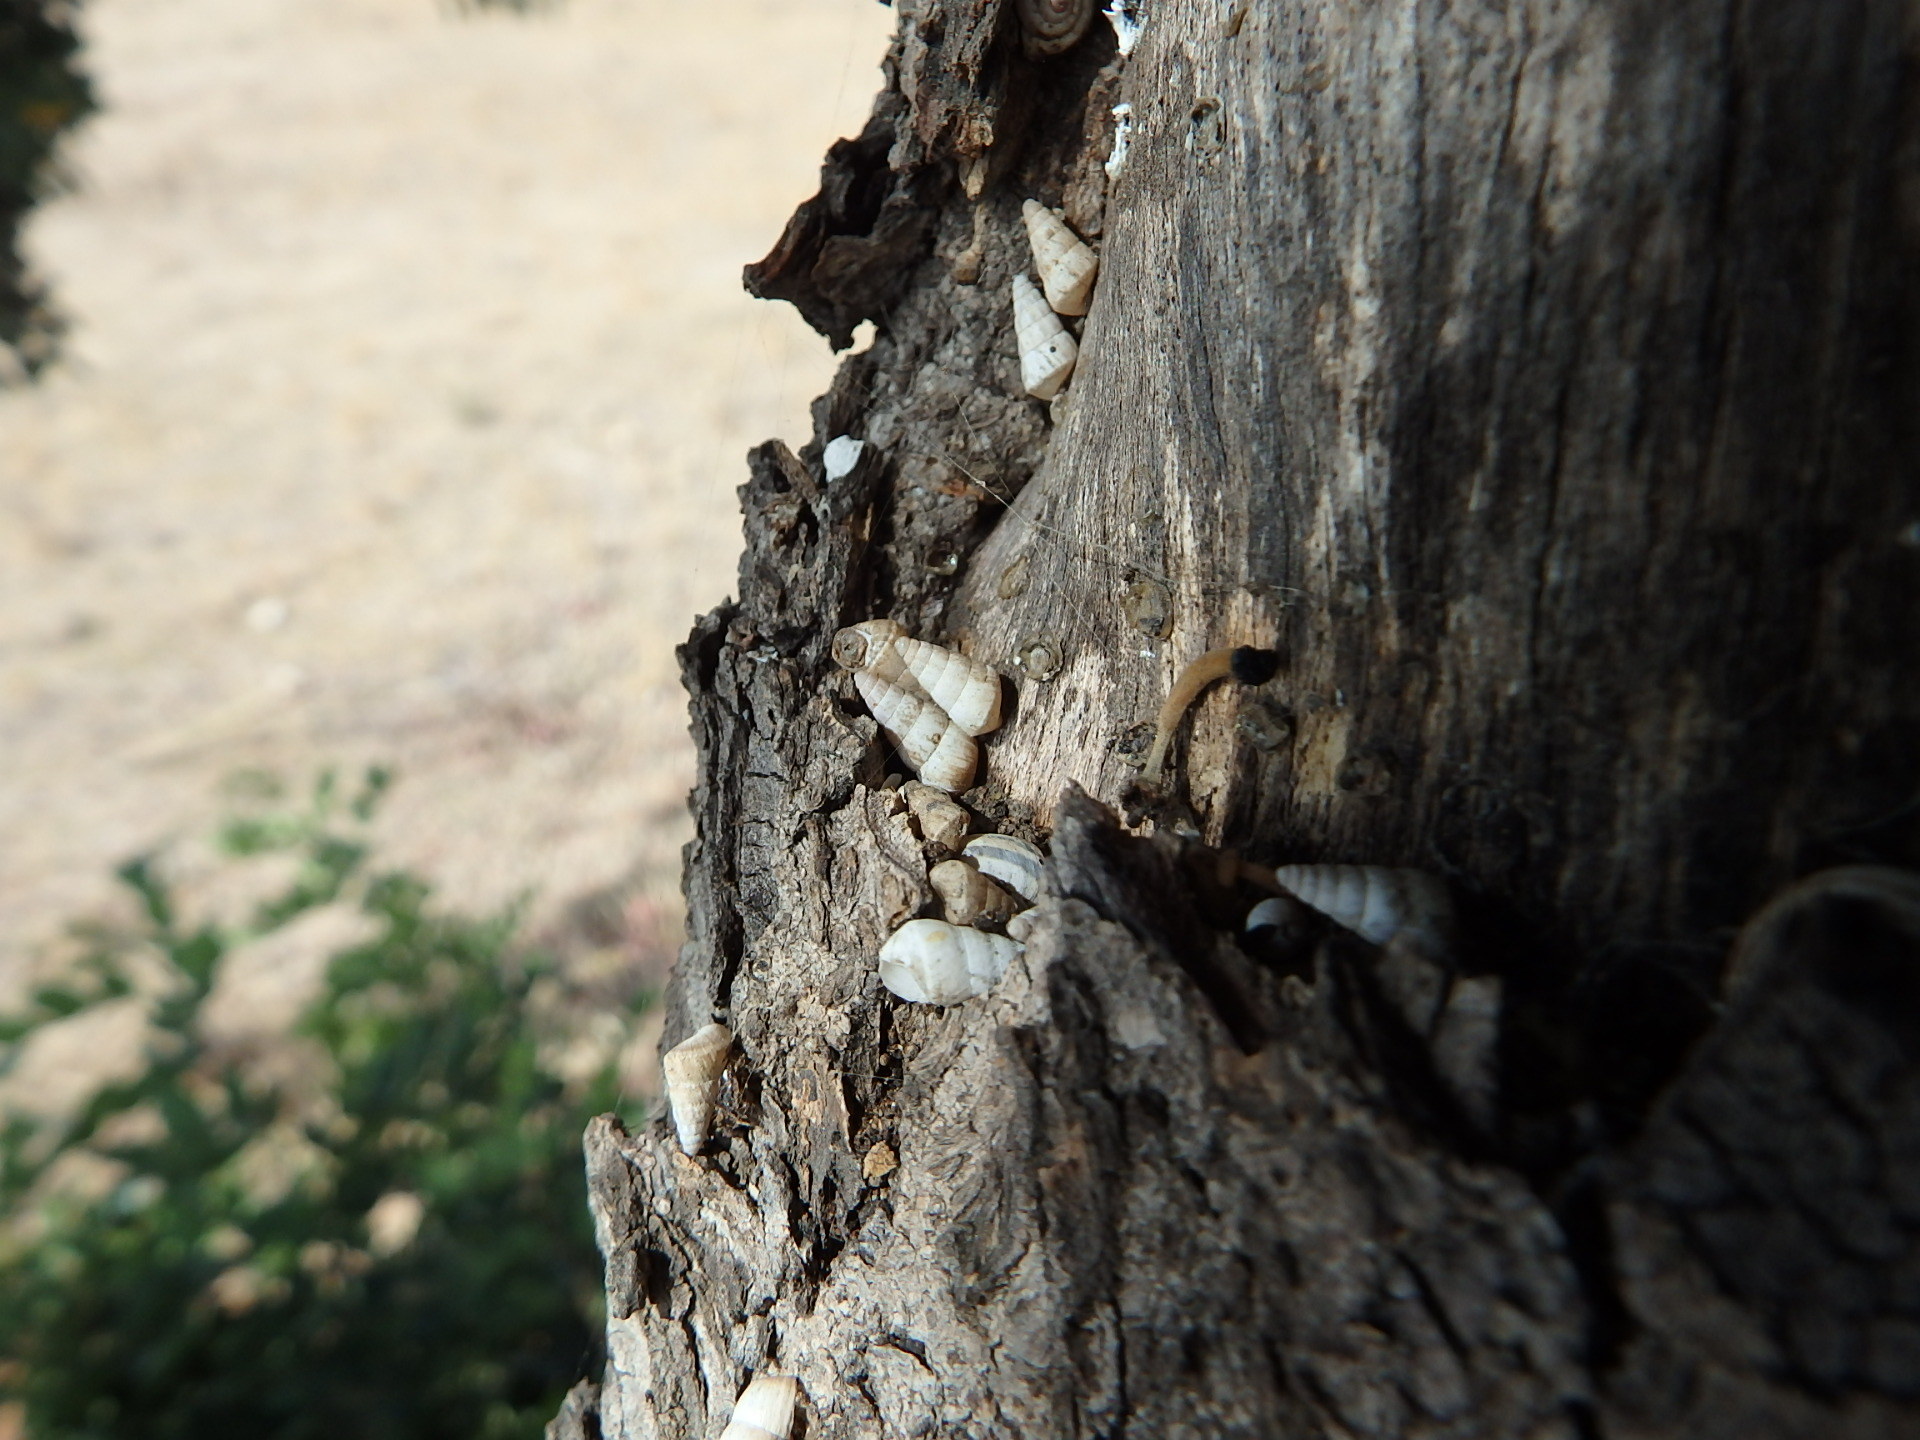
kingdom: Animalia
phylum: Mollusca
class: Gastropoda
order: Stylommatophora
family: Geomitridae
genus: Cochlicella
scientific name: Cochlicella acuta
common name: Pointed snail
